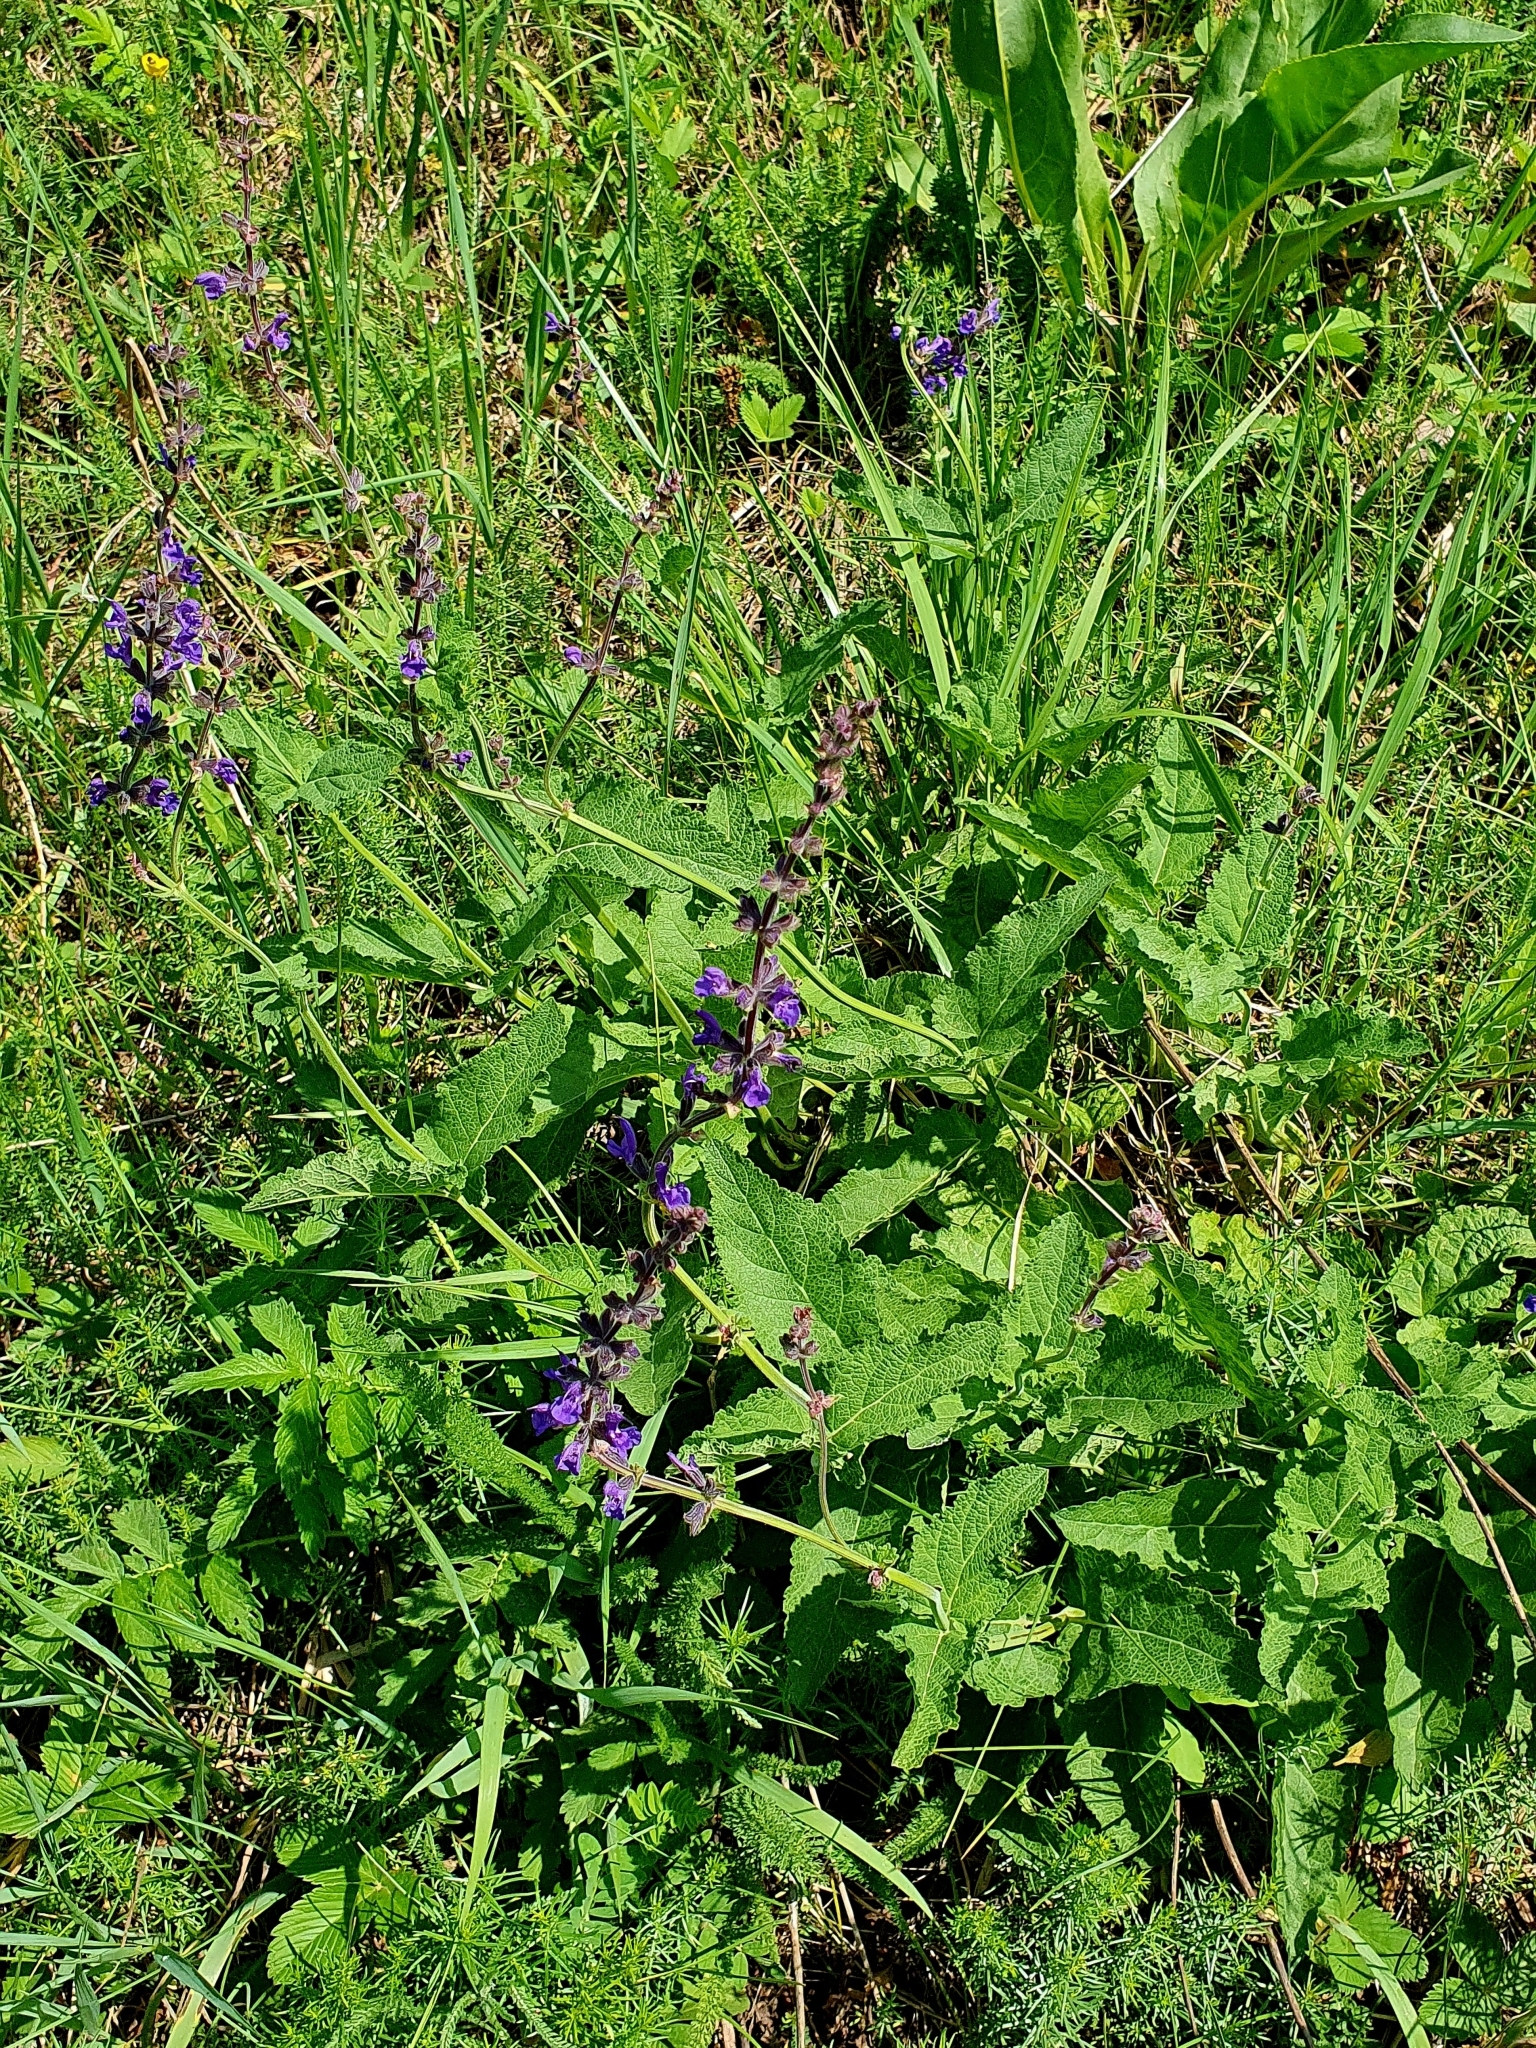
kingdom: Plantae
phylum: Tracheophyta
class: Magnoliopsida
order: Lamiales
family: Lamiaceae
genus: Salvia
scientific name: Salvia dumetorum
